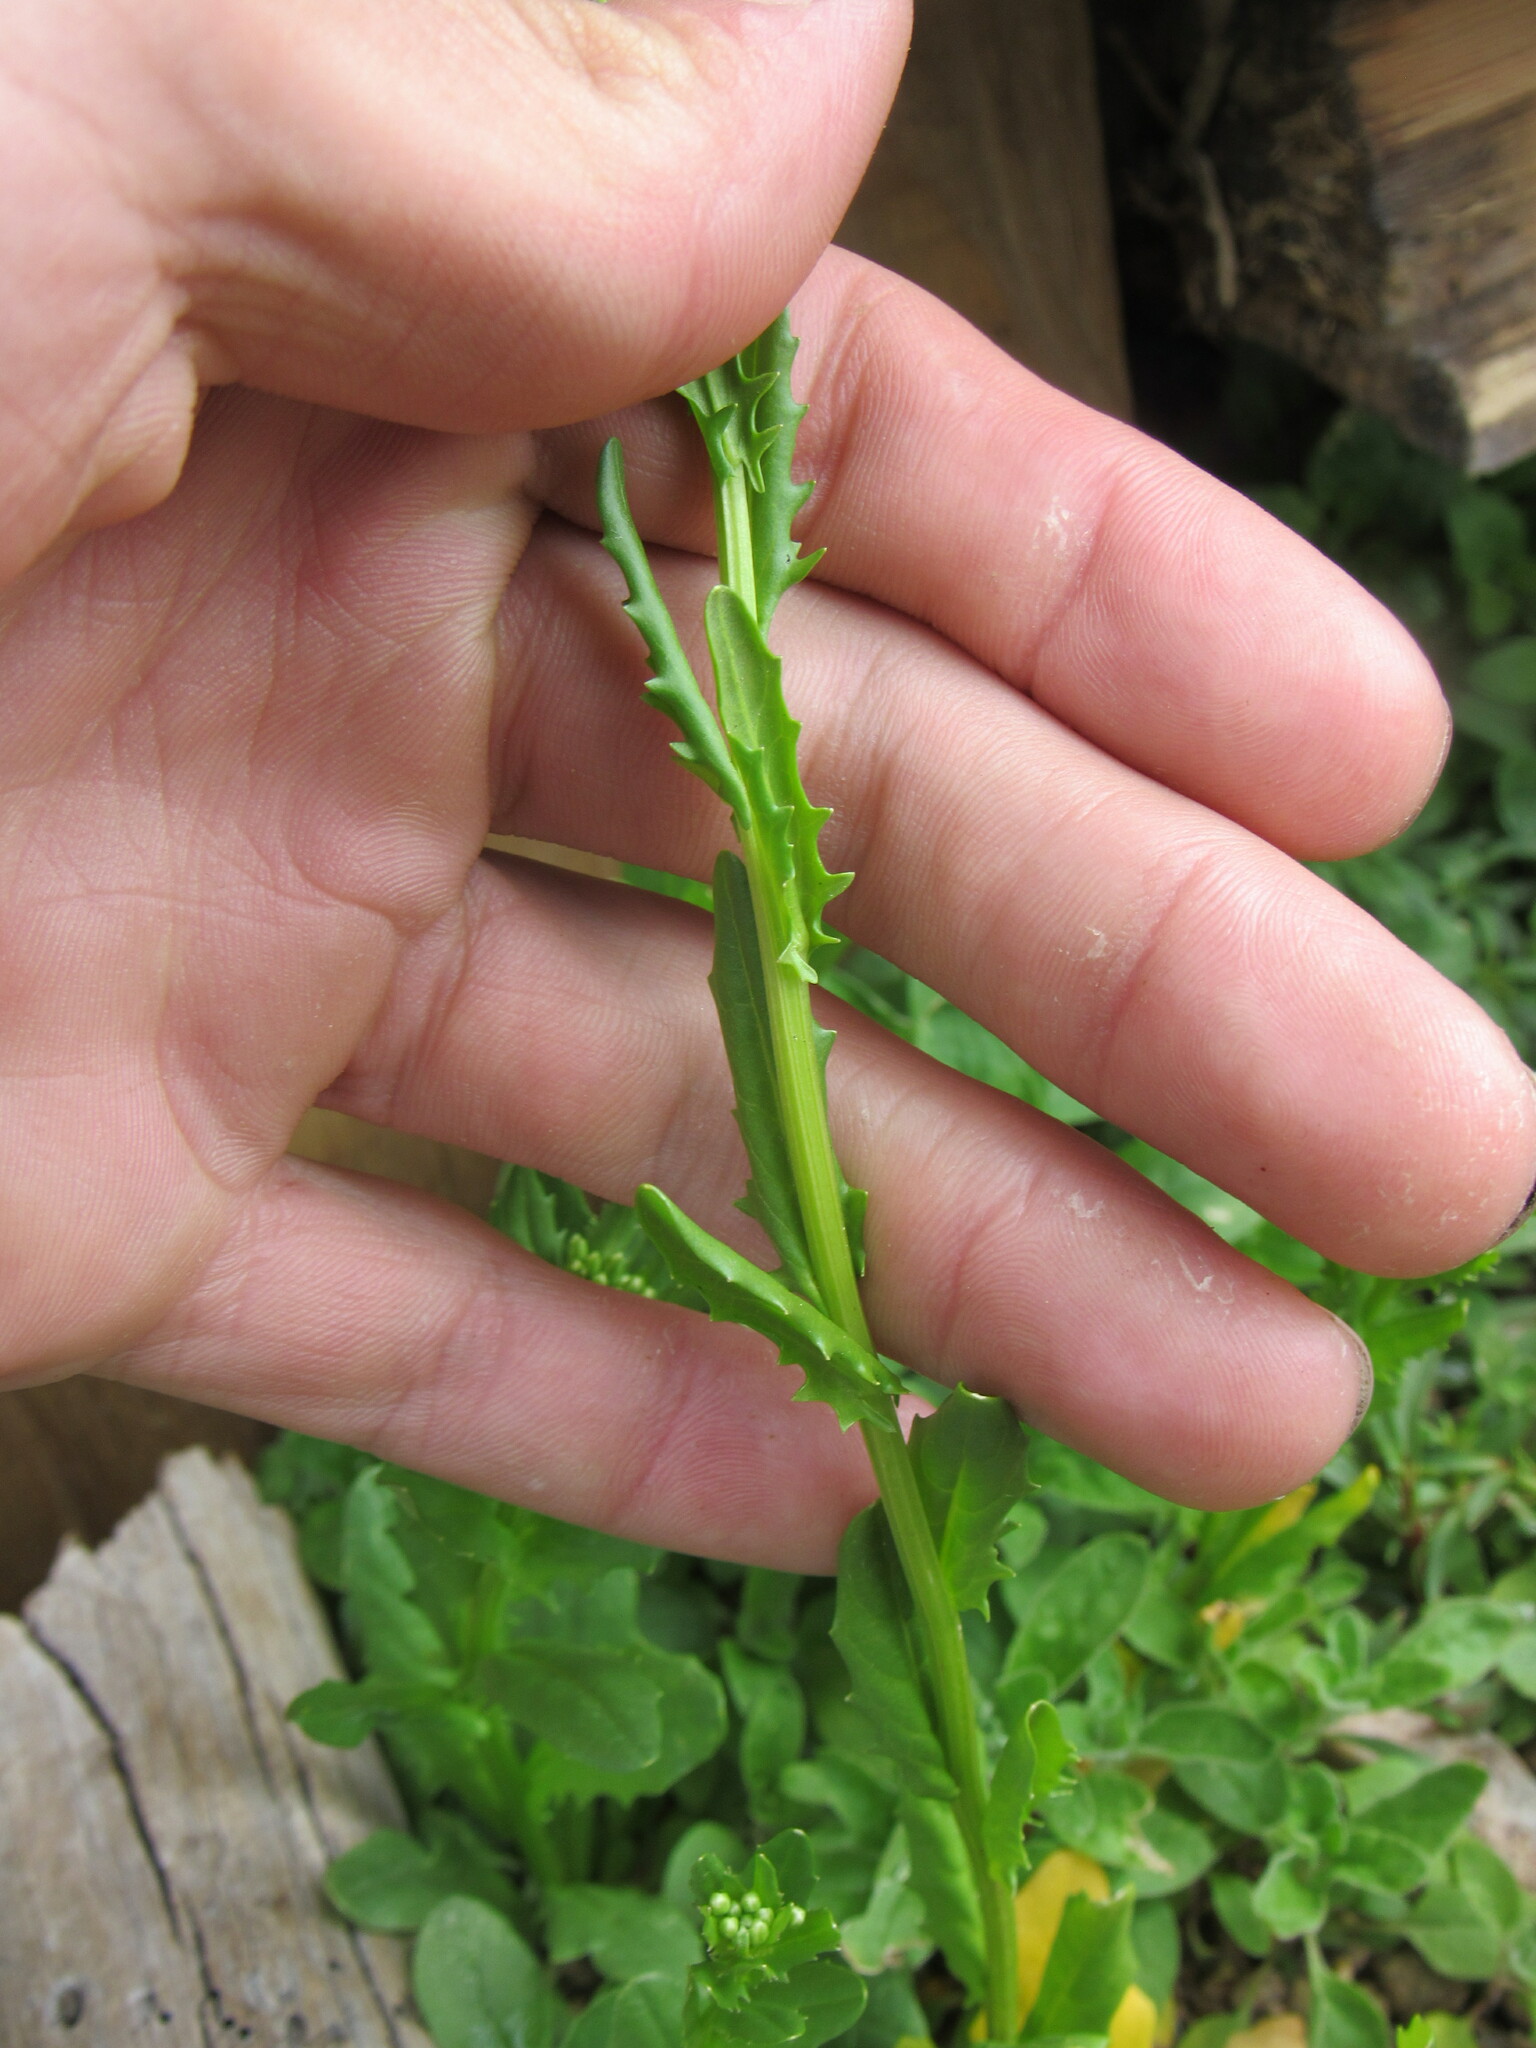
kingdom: Plantae
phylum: Tracheophyta
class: Magnoliopsida
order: Brassicales
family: Brassicaceae
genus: Thlaspi
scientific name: Thlaspi arvense
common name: Field pennycress
